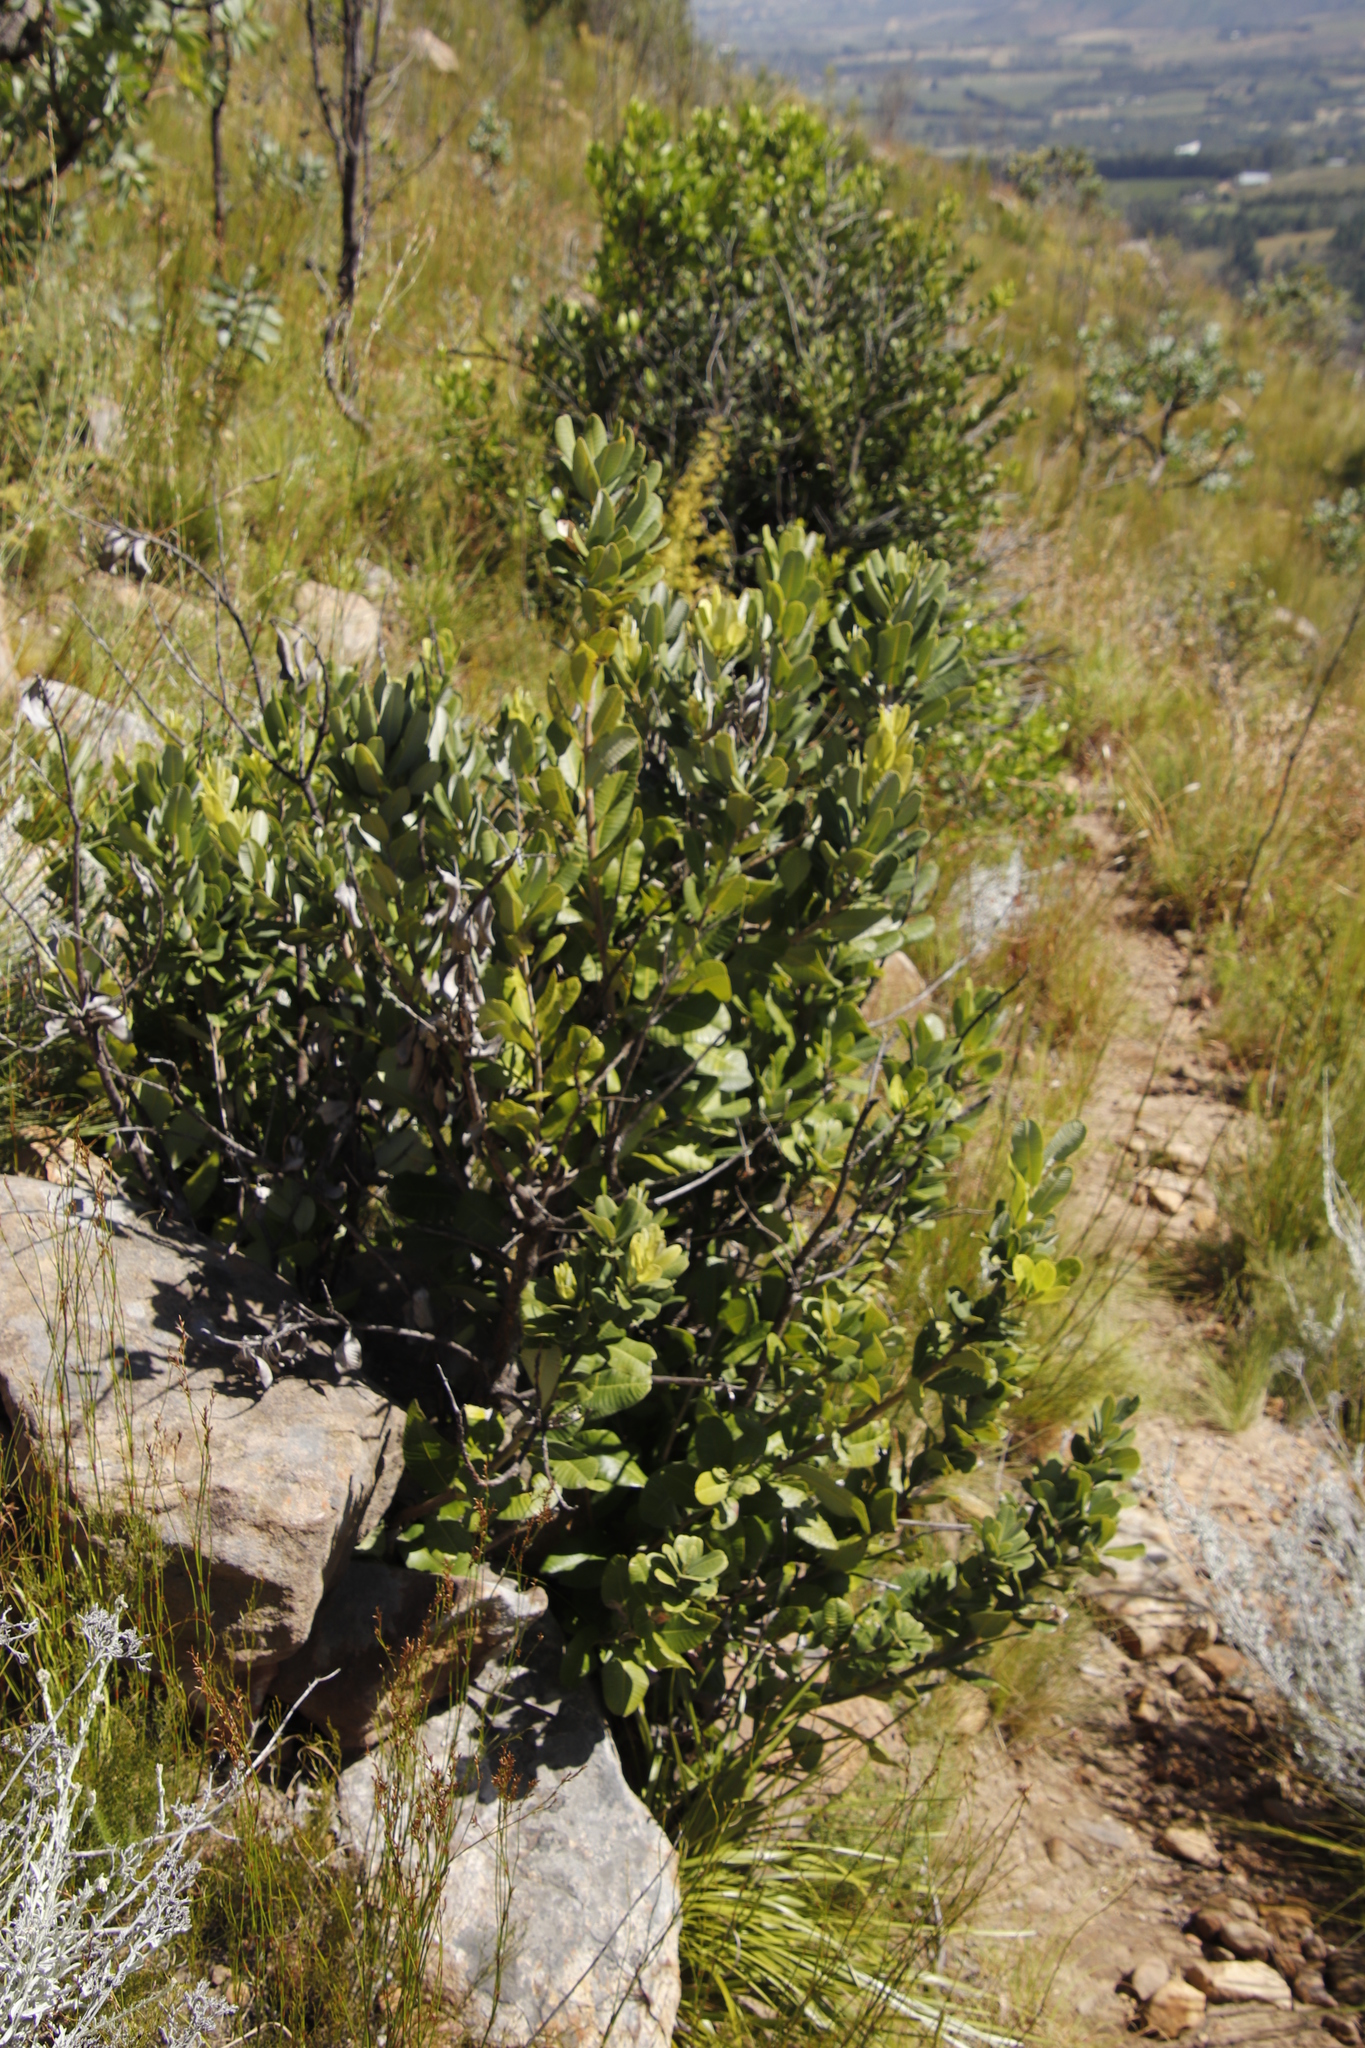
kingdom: Plantae
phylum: Tracheophyta
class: Magnoliopsida
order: Sapindales
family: Anacardiaceae
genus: Heeria
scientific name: Heeria argentea
